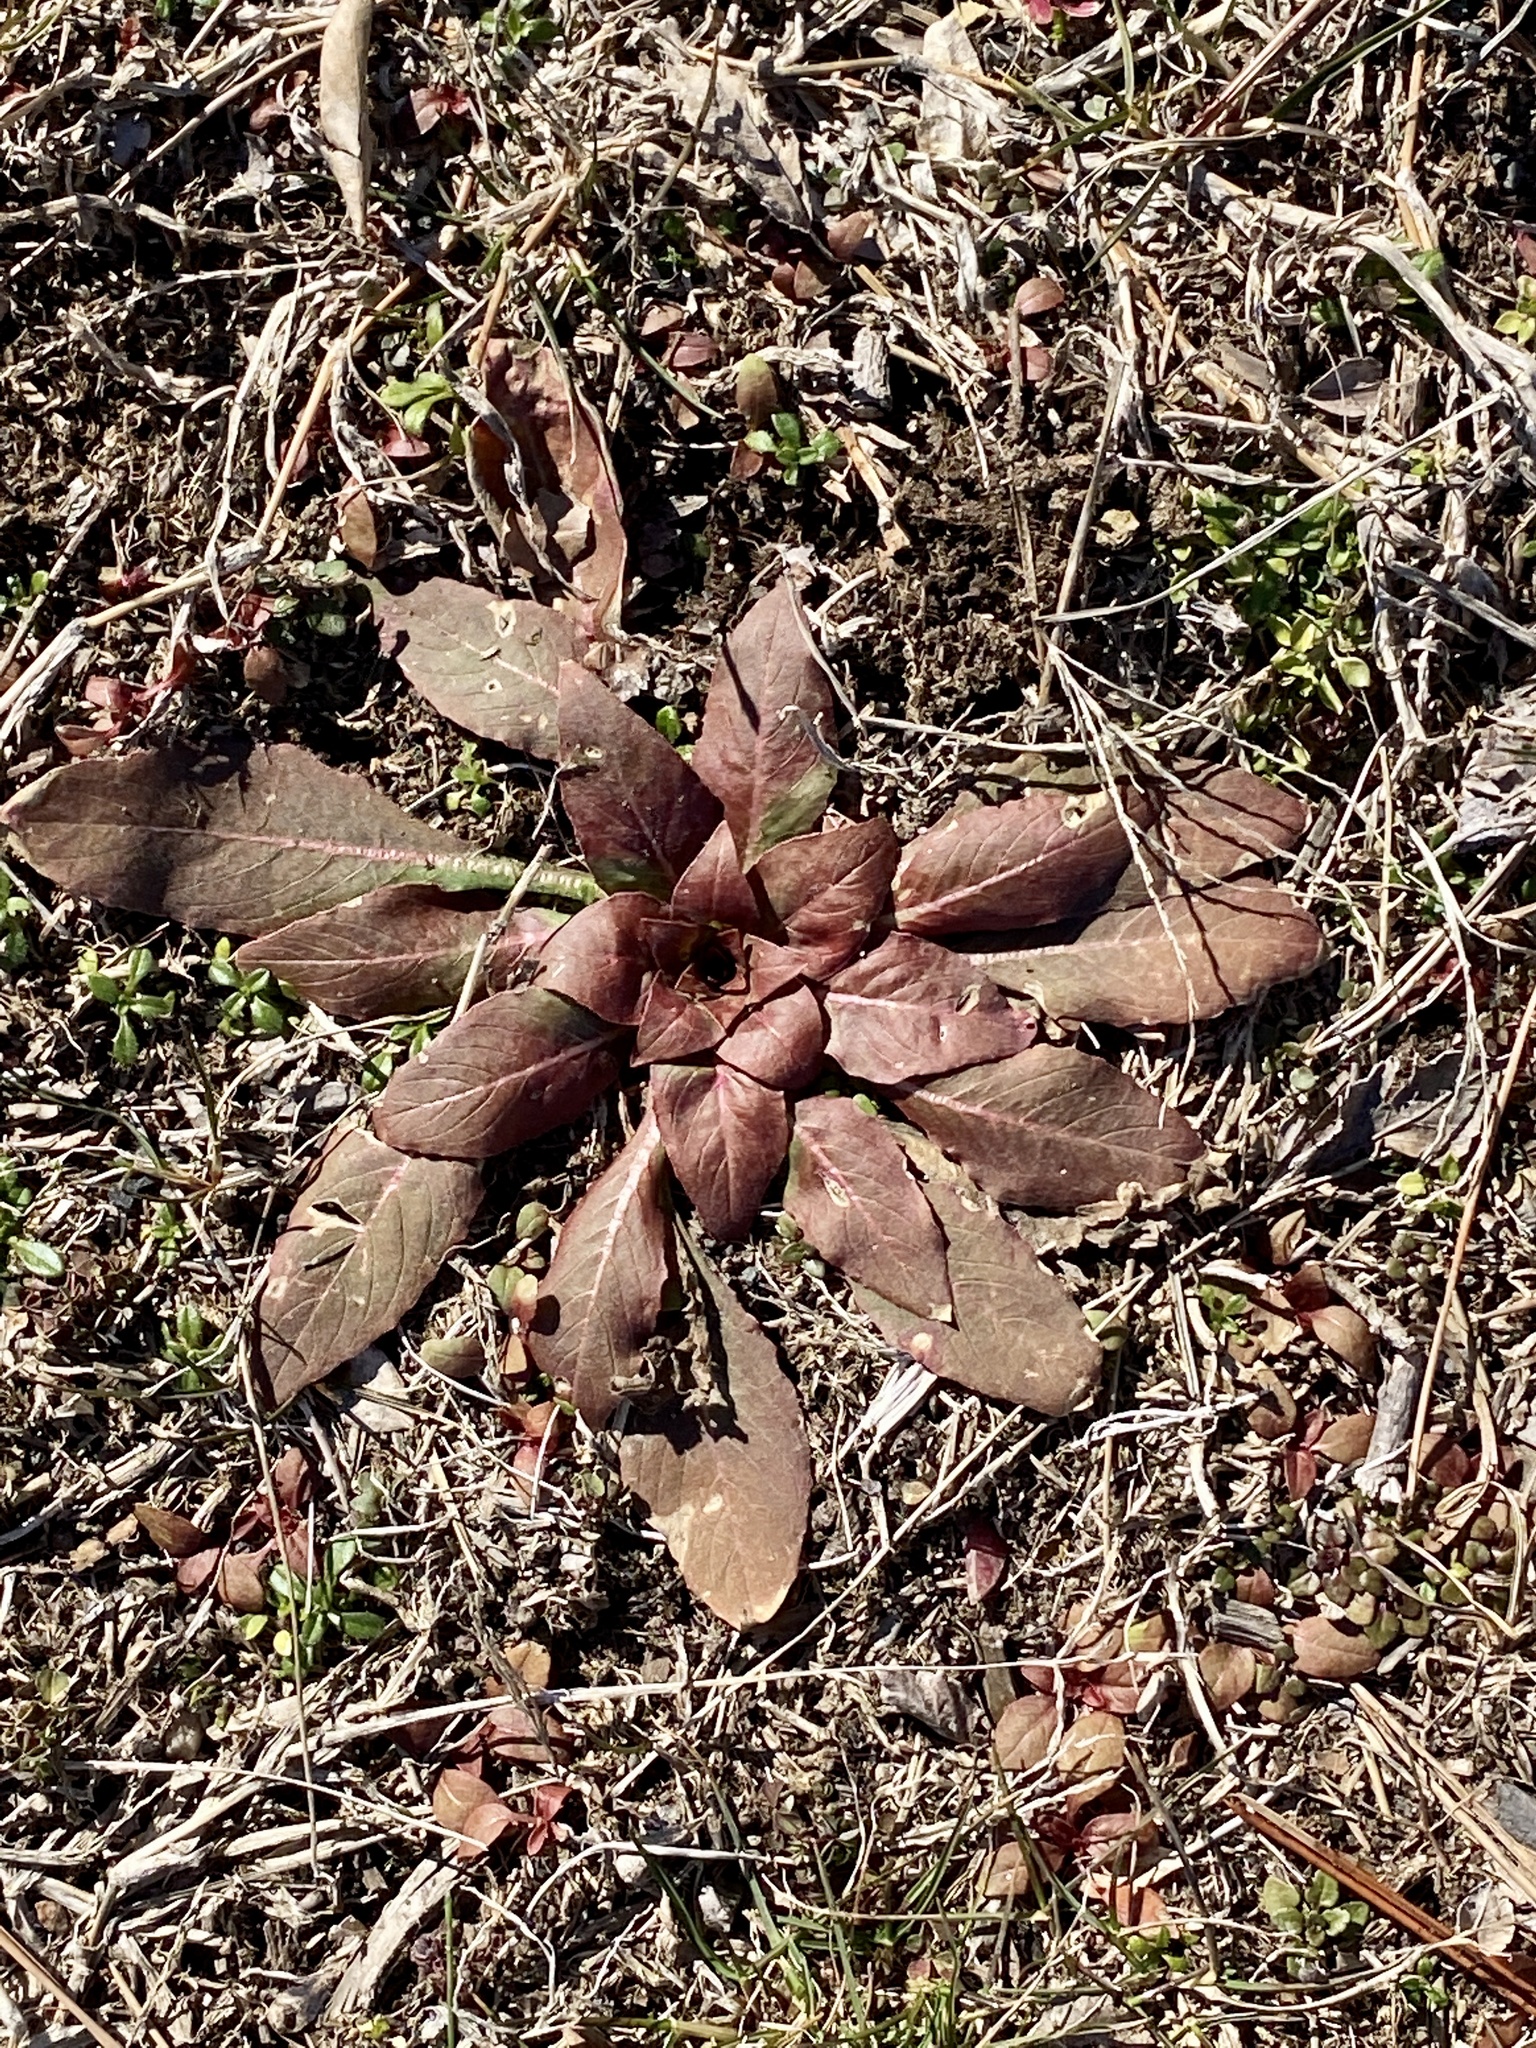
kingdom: Plantae
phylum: Tracheophyta
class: Magnoliopsida
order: Myrtales
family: Onagraceae
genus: Oenothera
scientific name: Oenothera biennis
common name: Common evening-primrose
